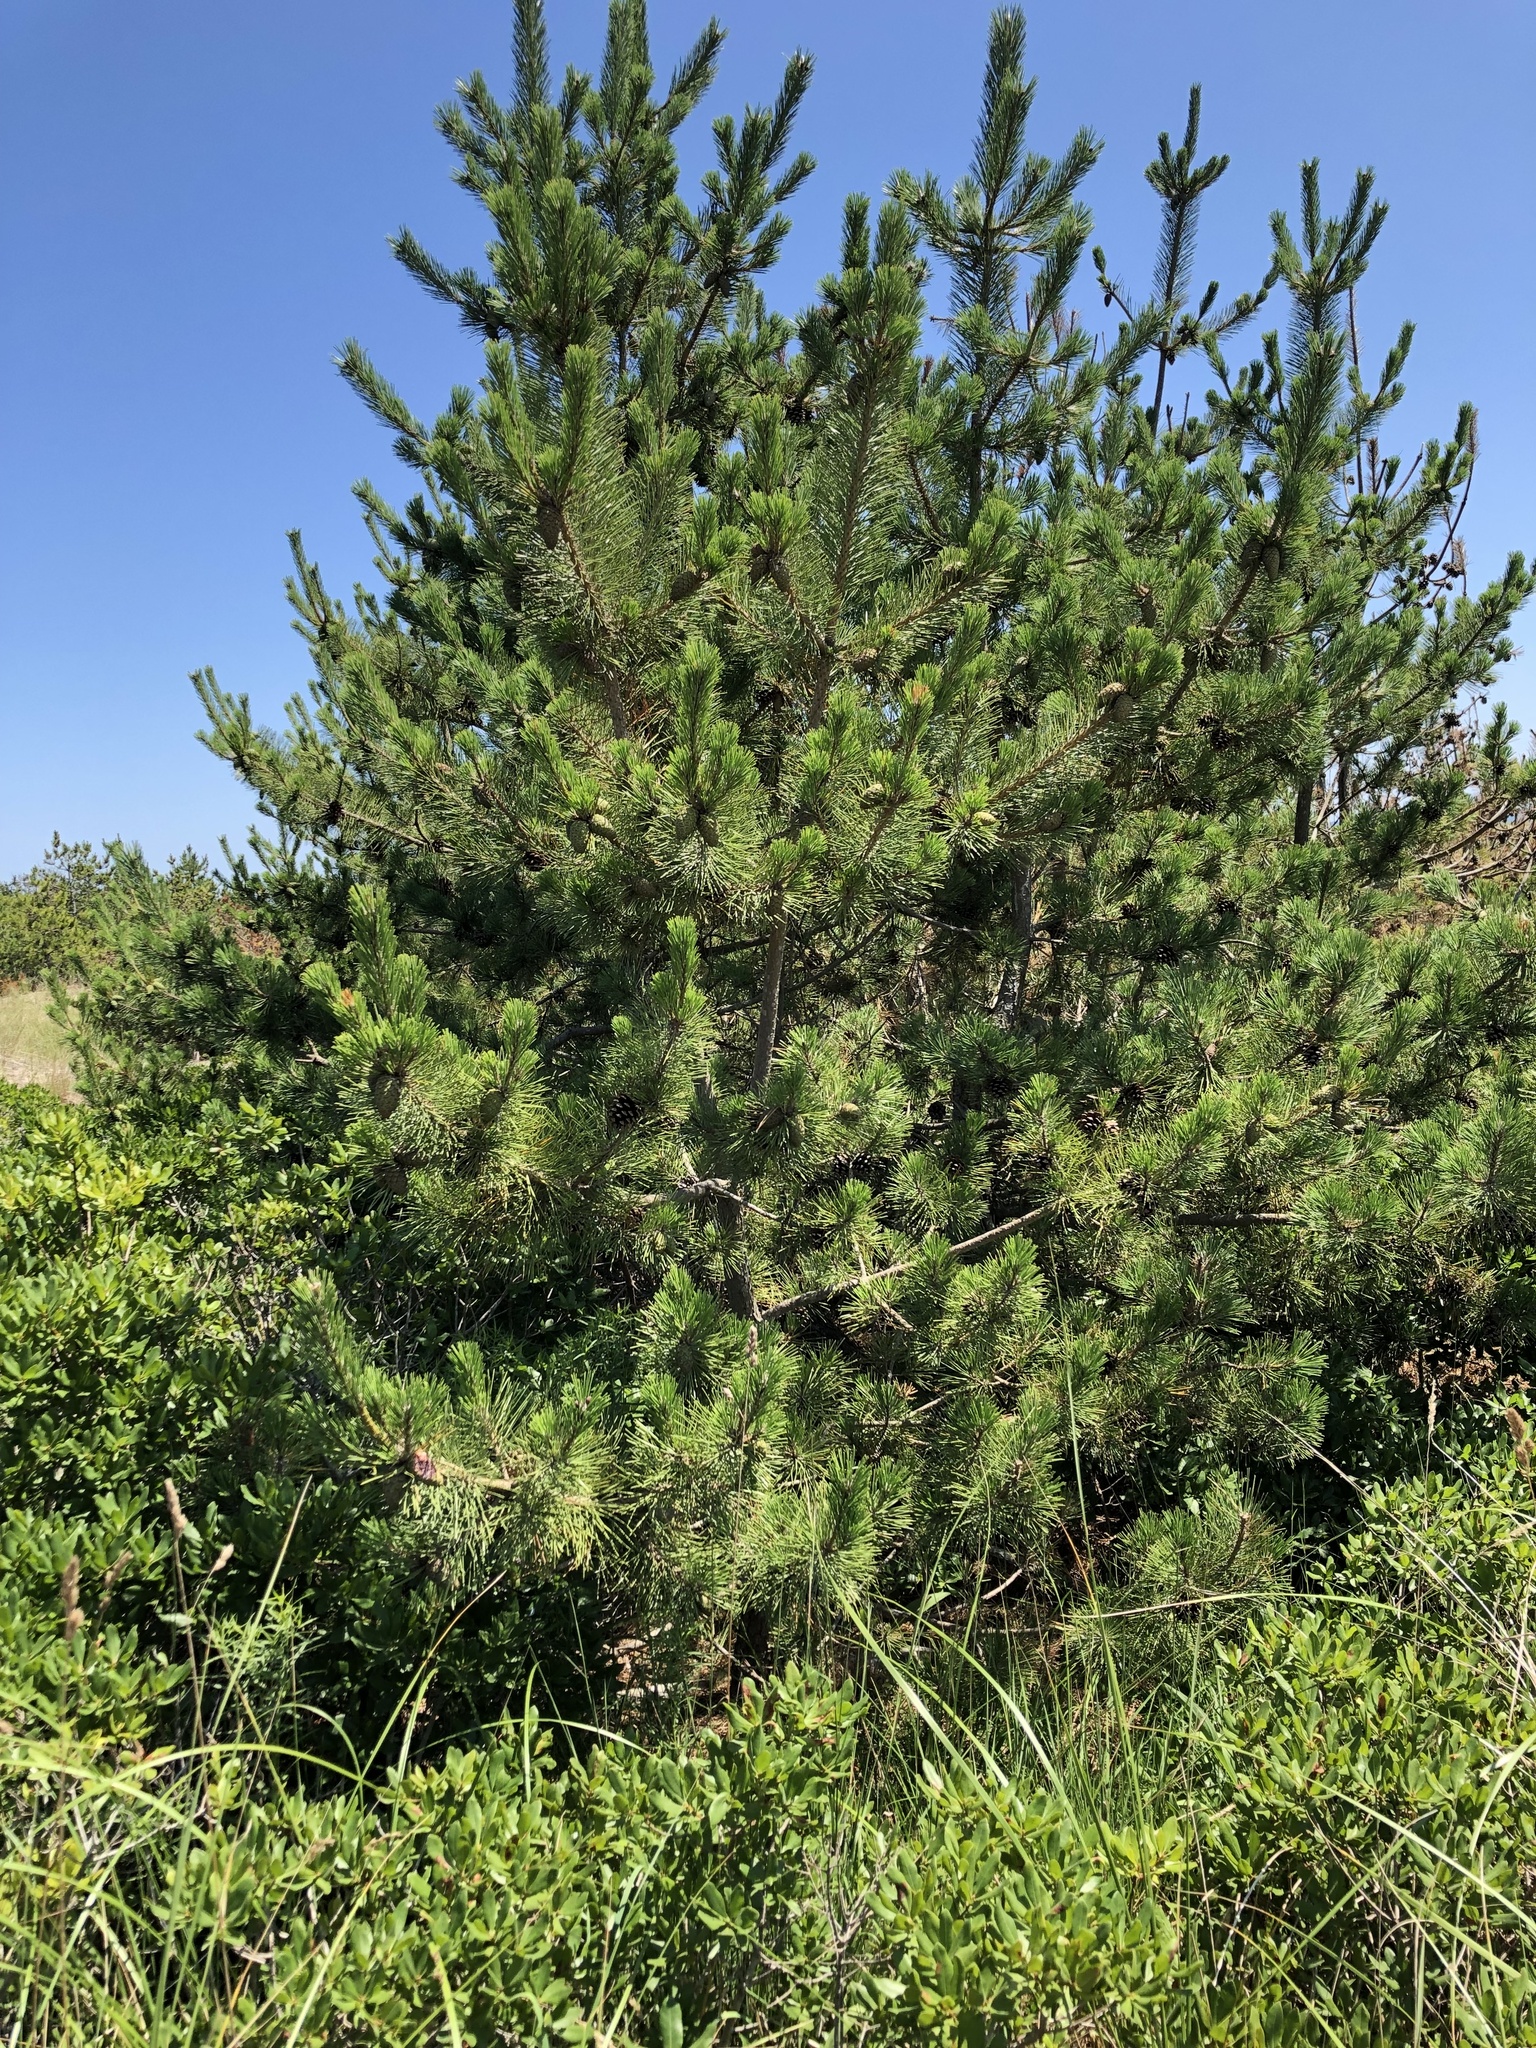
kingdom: Plantae
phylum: Tracheophyta
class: Pinopsida
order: Pinales
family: Pinaceae
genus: Pinus
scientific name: Pinus thunbergii
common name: Japanese black pine
